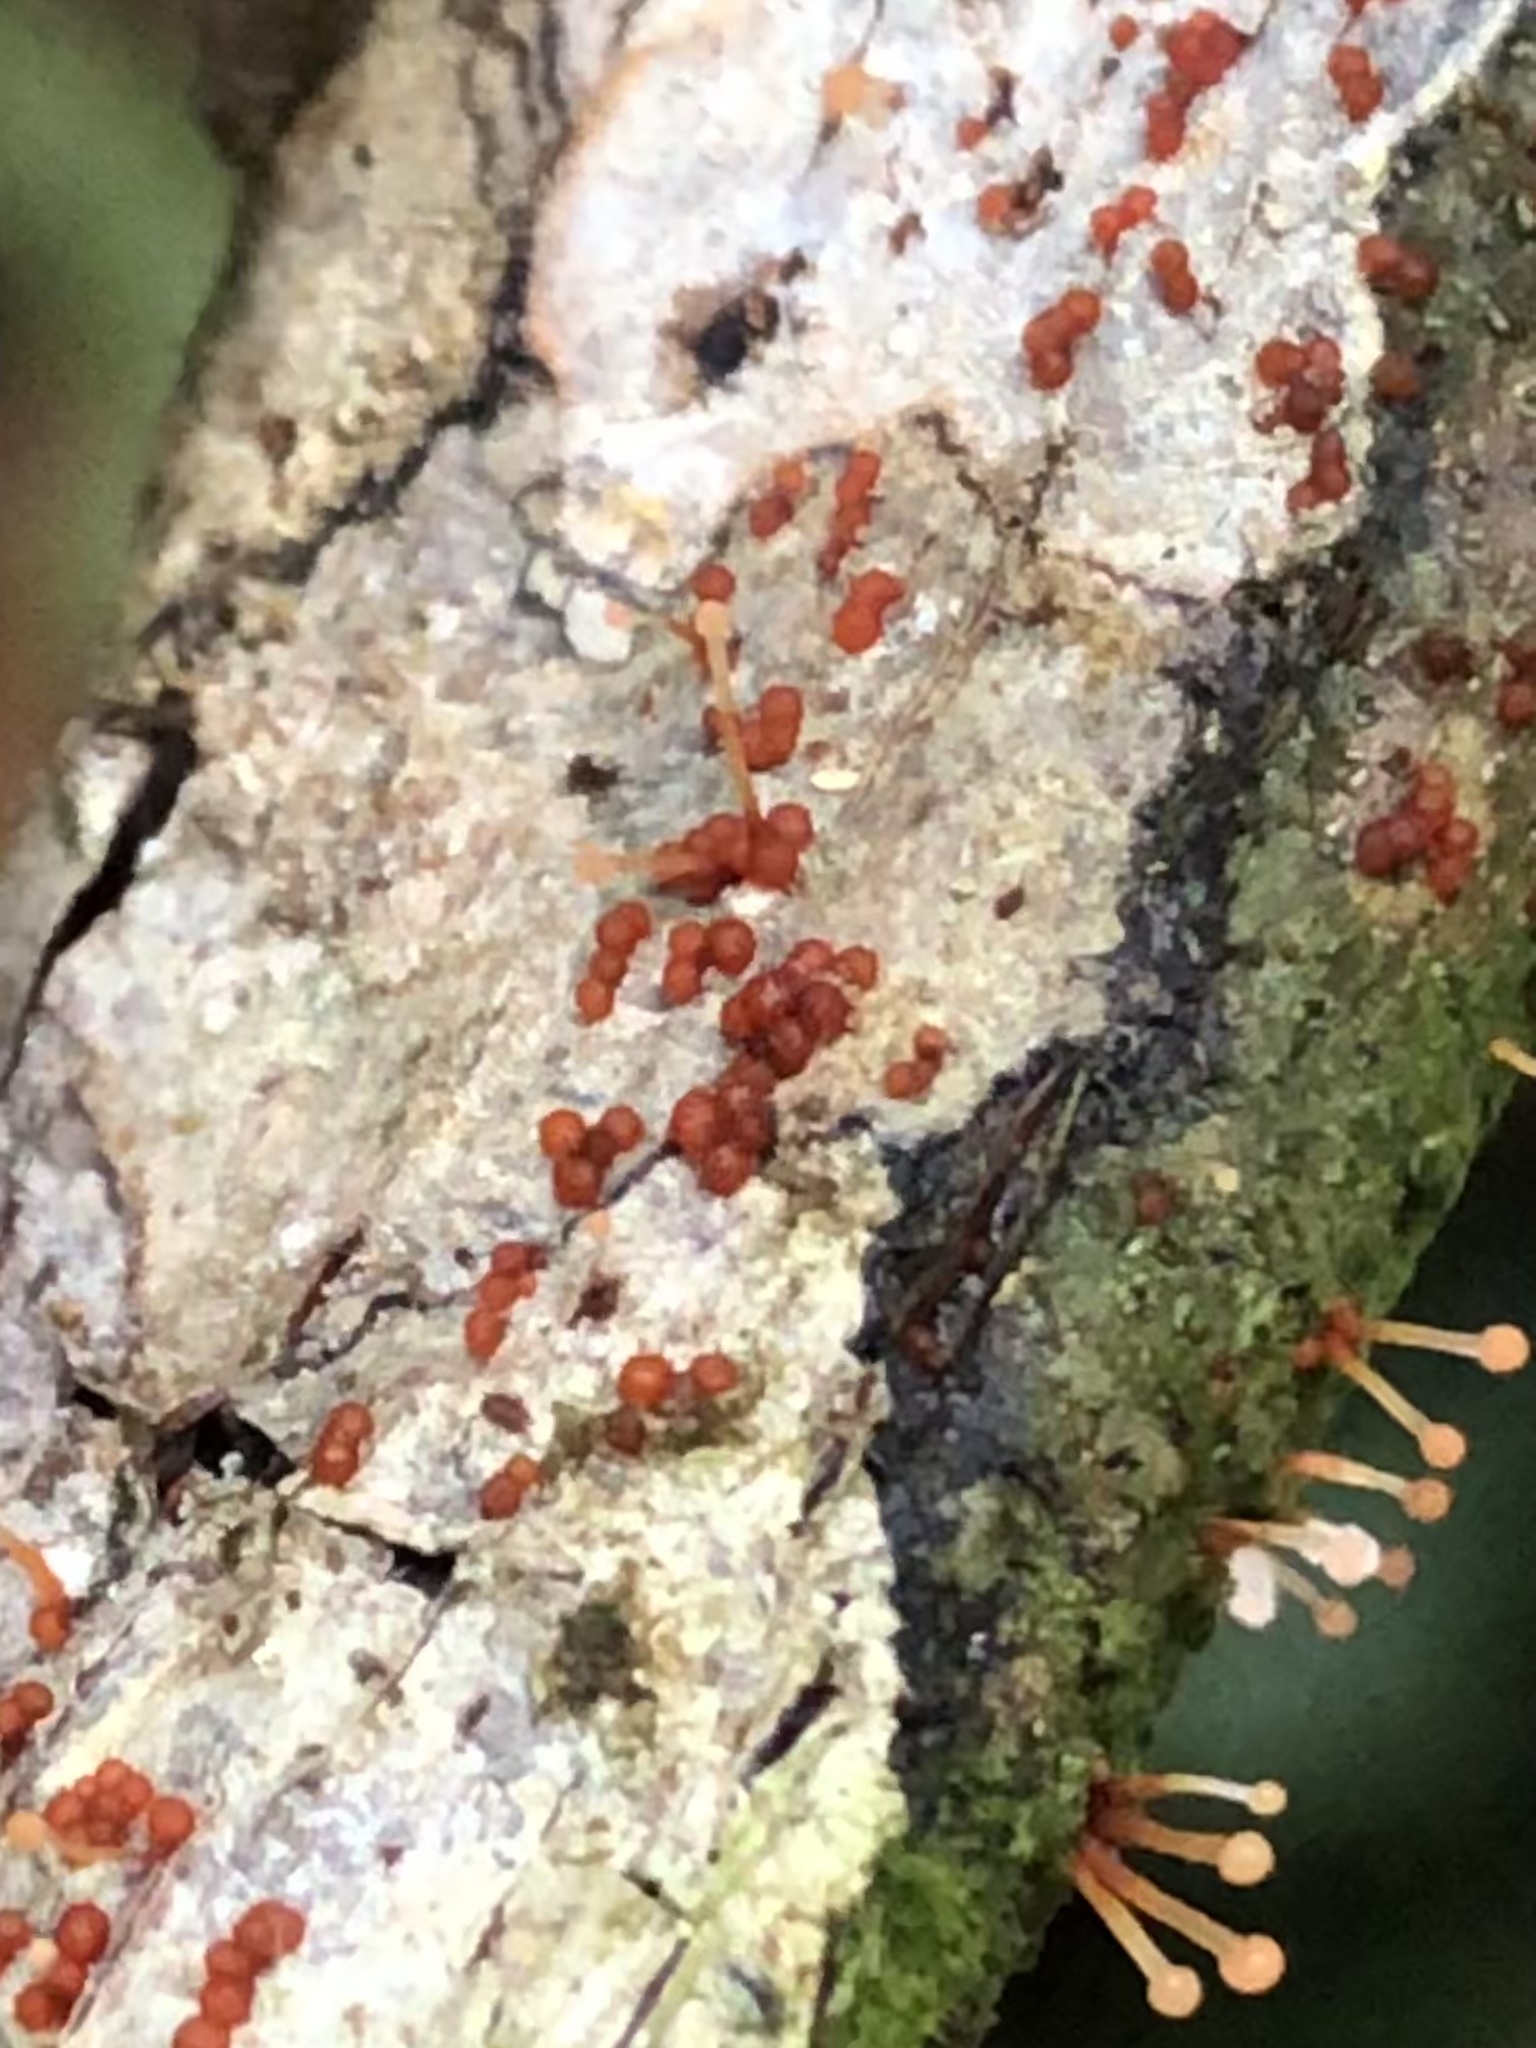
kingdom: Fungi
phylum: Ascomycota
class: Sordariomycetes
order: Hypocreales
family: Nectriaceae
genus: Nectria
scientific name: Nectria pseudotrichia
